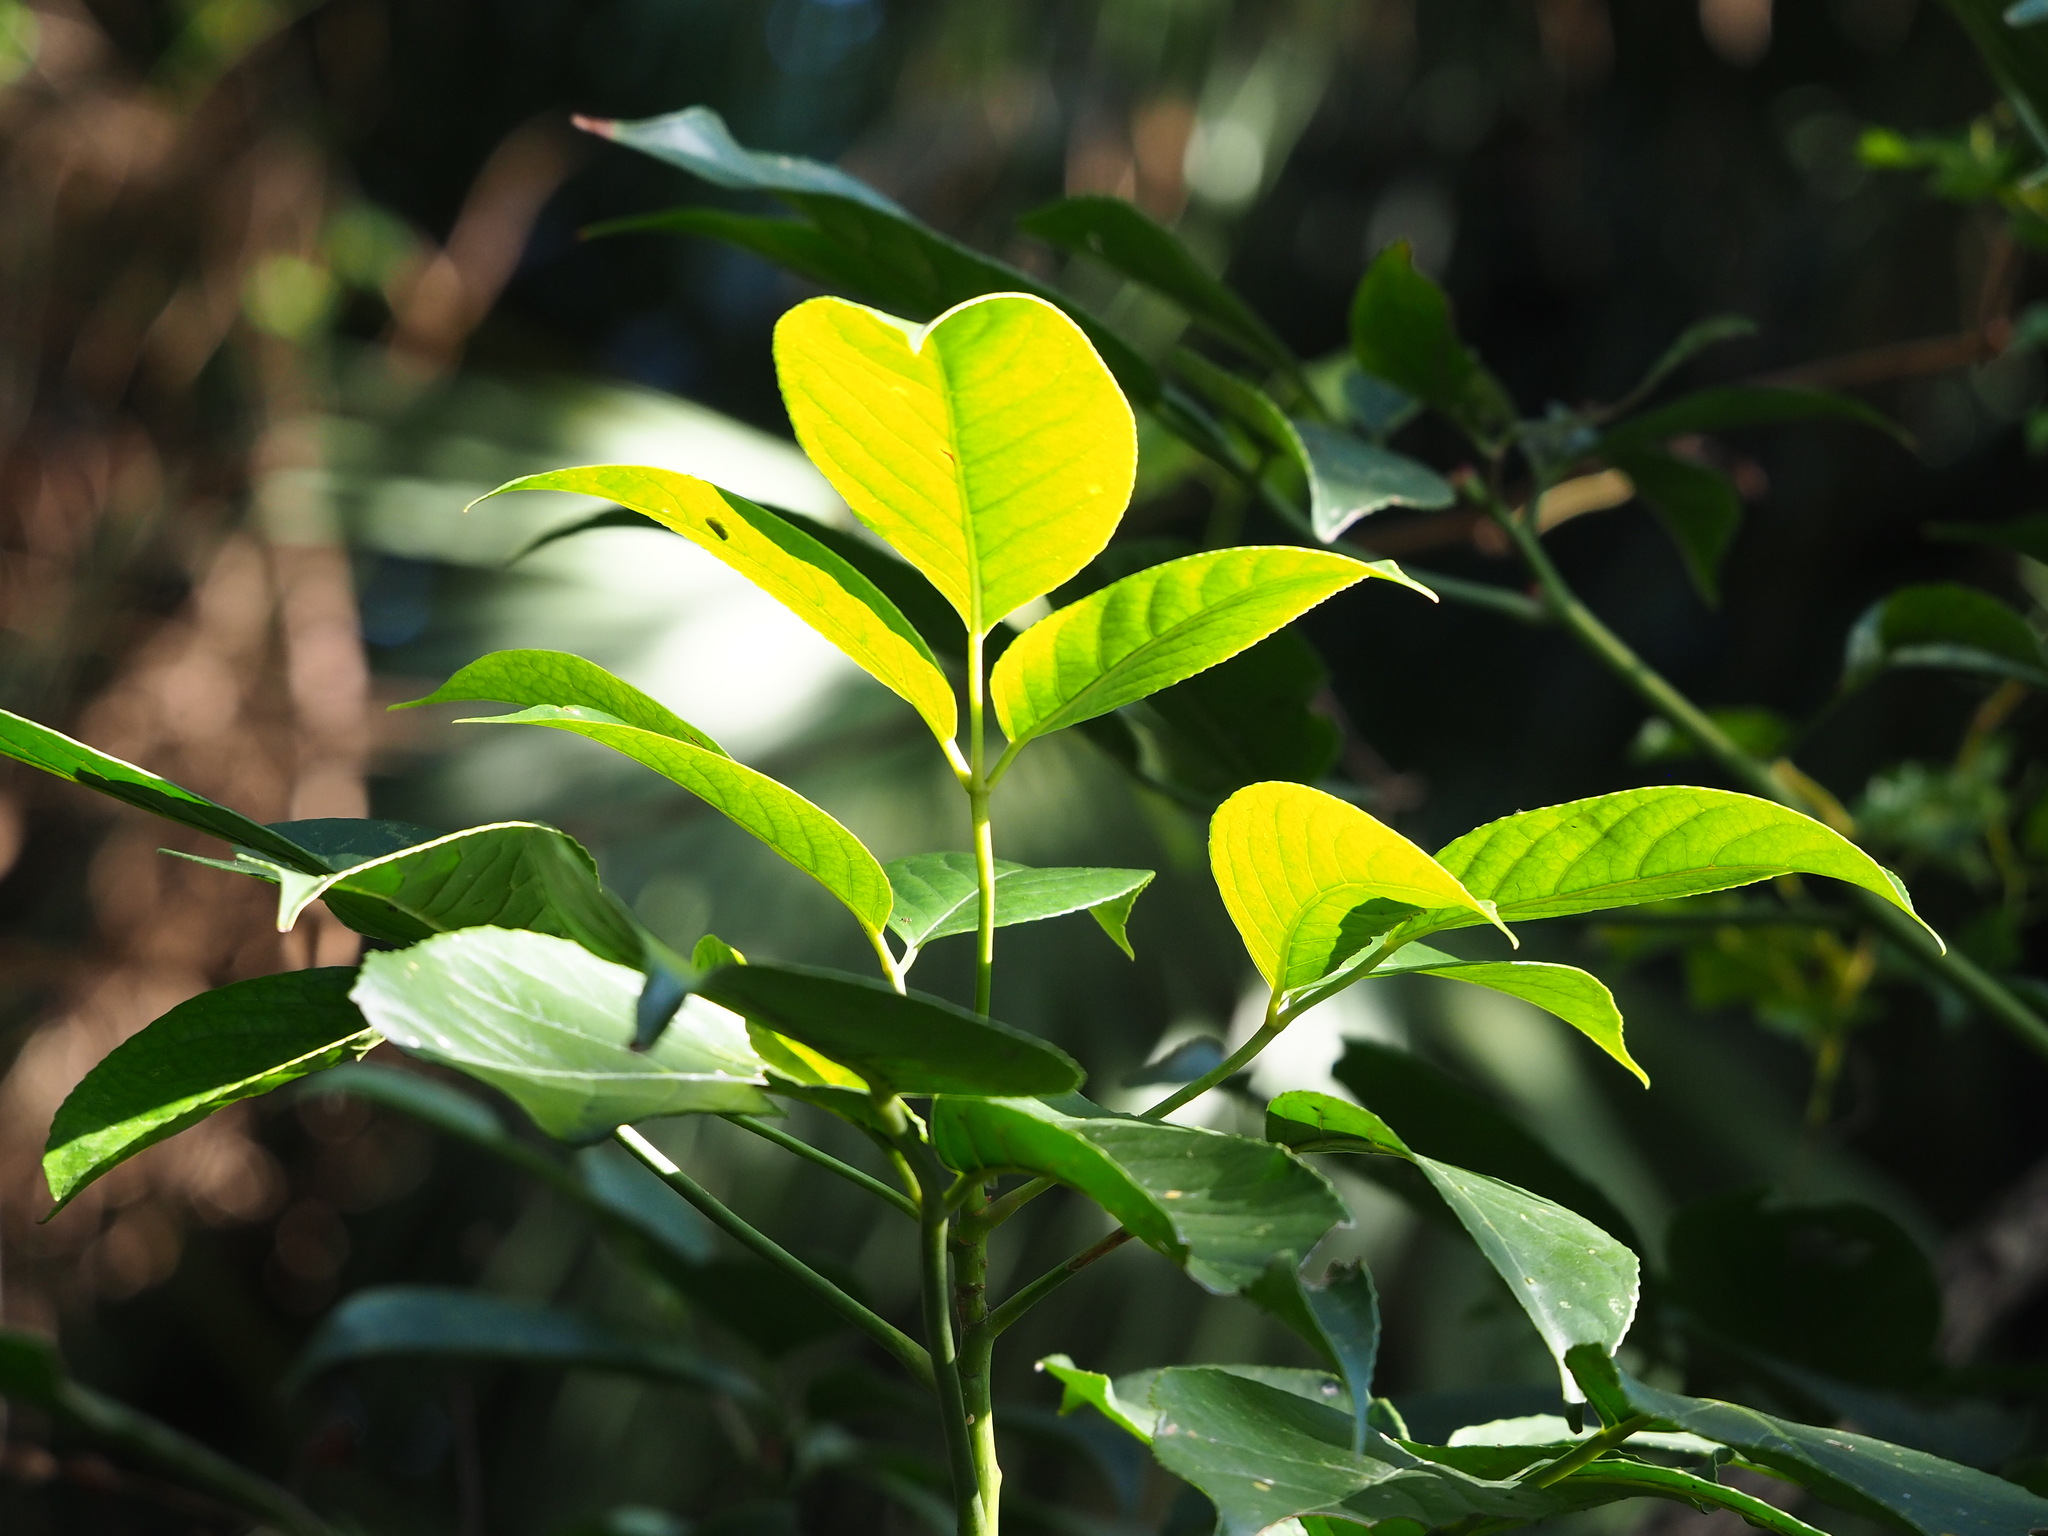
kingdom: Plantae
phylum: Tracheophyta
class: Magnoliopsida
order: Malpighiales
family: Phyllanthaceae
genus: Bischofia
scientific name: Bischofia javanica
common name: Javanese bishopwood
